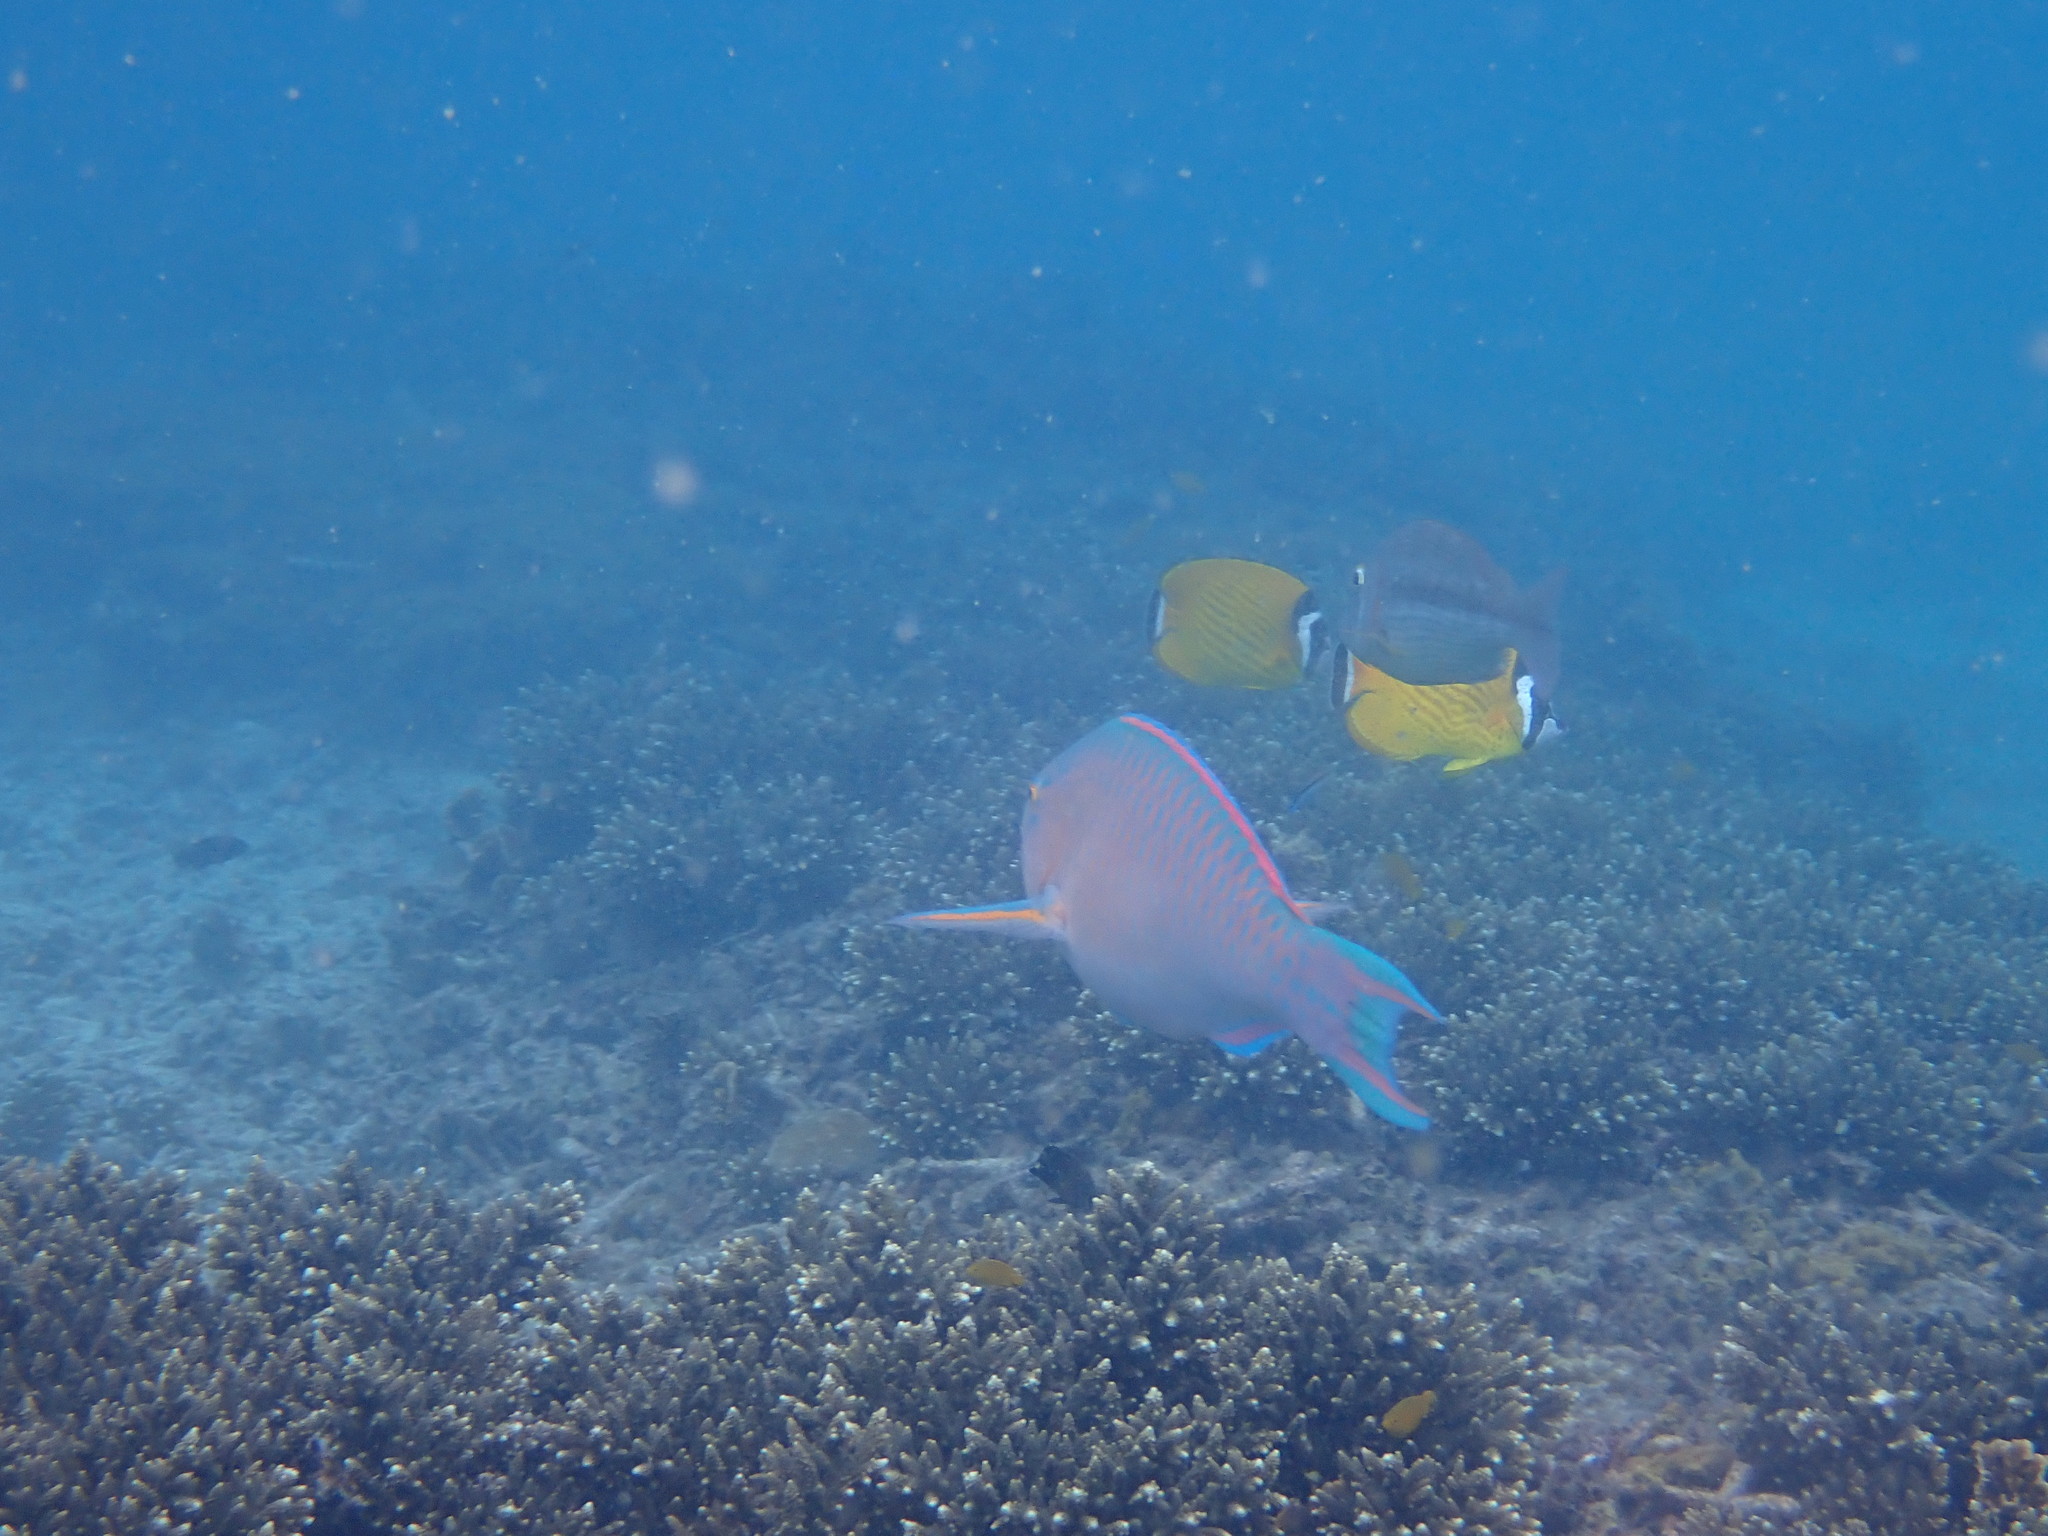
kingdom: Animalia
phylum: Chordata
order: Perciformes
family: Chaetodontidae
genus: Chaetodon
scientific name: Chaetodon wiebeli
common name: Butterflyfish
